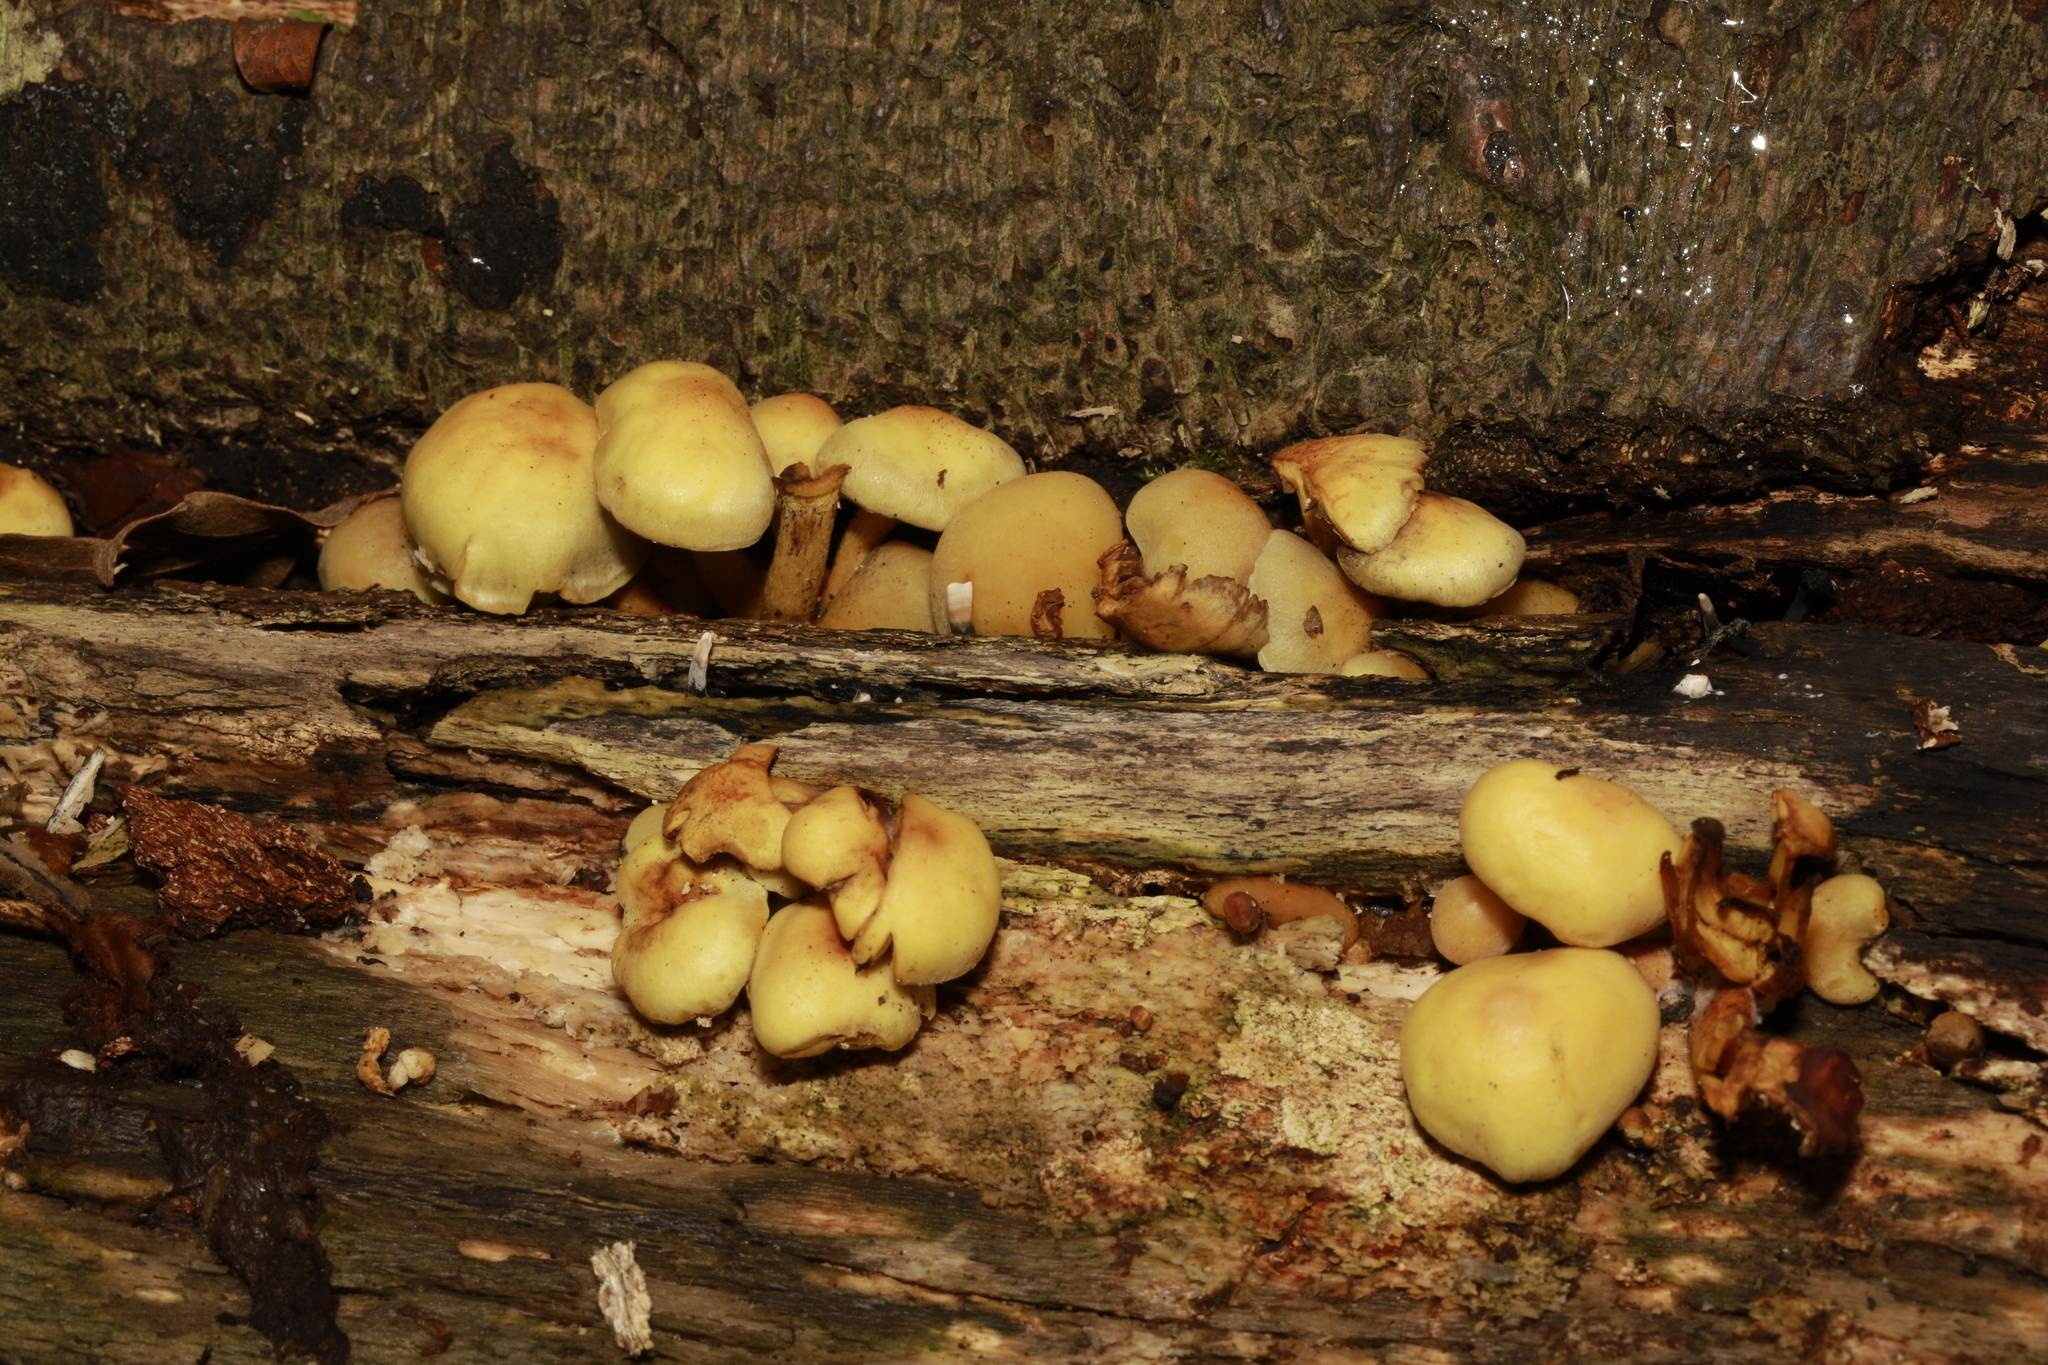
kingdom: Fungi
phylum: Basidiomycota
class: Agaricomycetes
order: Agaricales
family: Strophariaceae
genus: Hypholoma
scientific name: Hypholoma fasciculare
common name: Sulphur tuft
